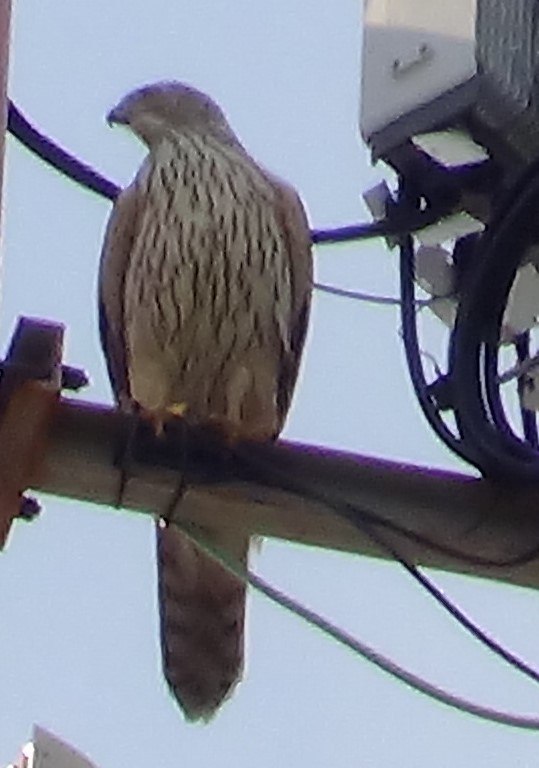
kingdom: Animalia
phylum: Chordata
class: Aves
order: Accipitriformes
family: Accipitridae
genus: Accipiter
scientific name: Accipiter gentilis
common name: Northern goshawk
